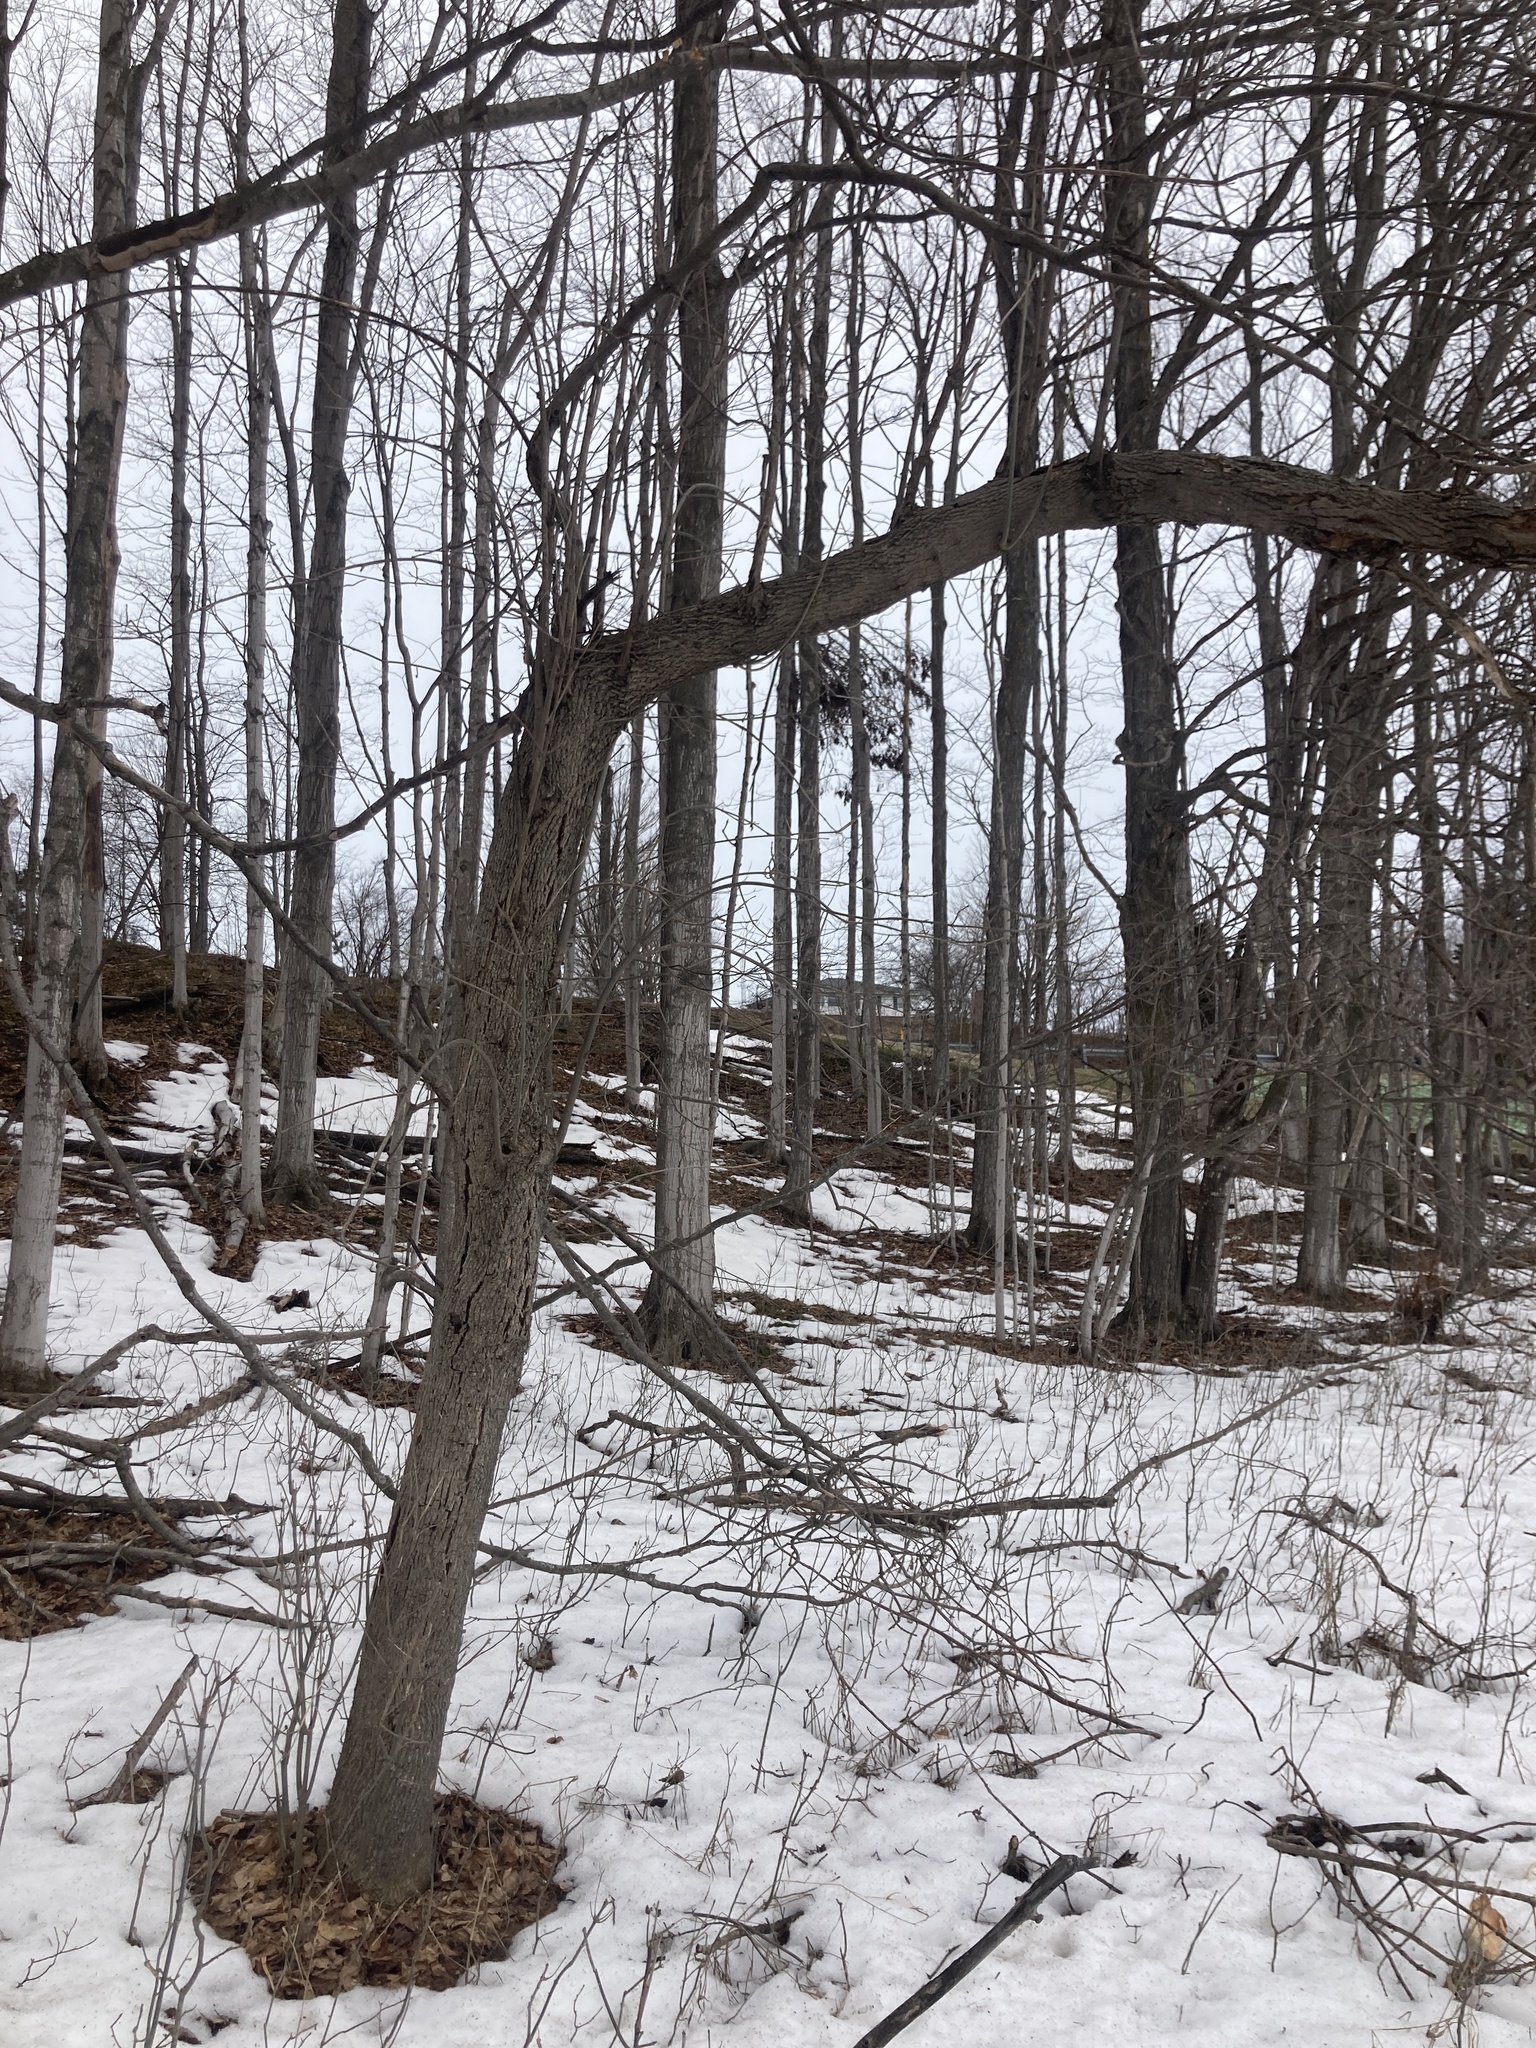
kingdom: Plantae
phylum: Tracheophyta
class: Magnoliopsida
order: Lamiales
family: Oleaceae
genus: Fraxinus
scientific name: Fraxinus pennsylvanica
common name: Green ash
